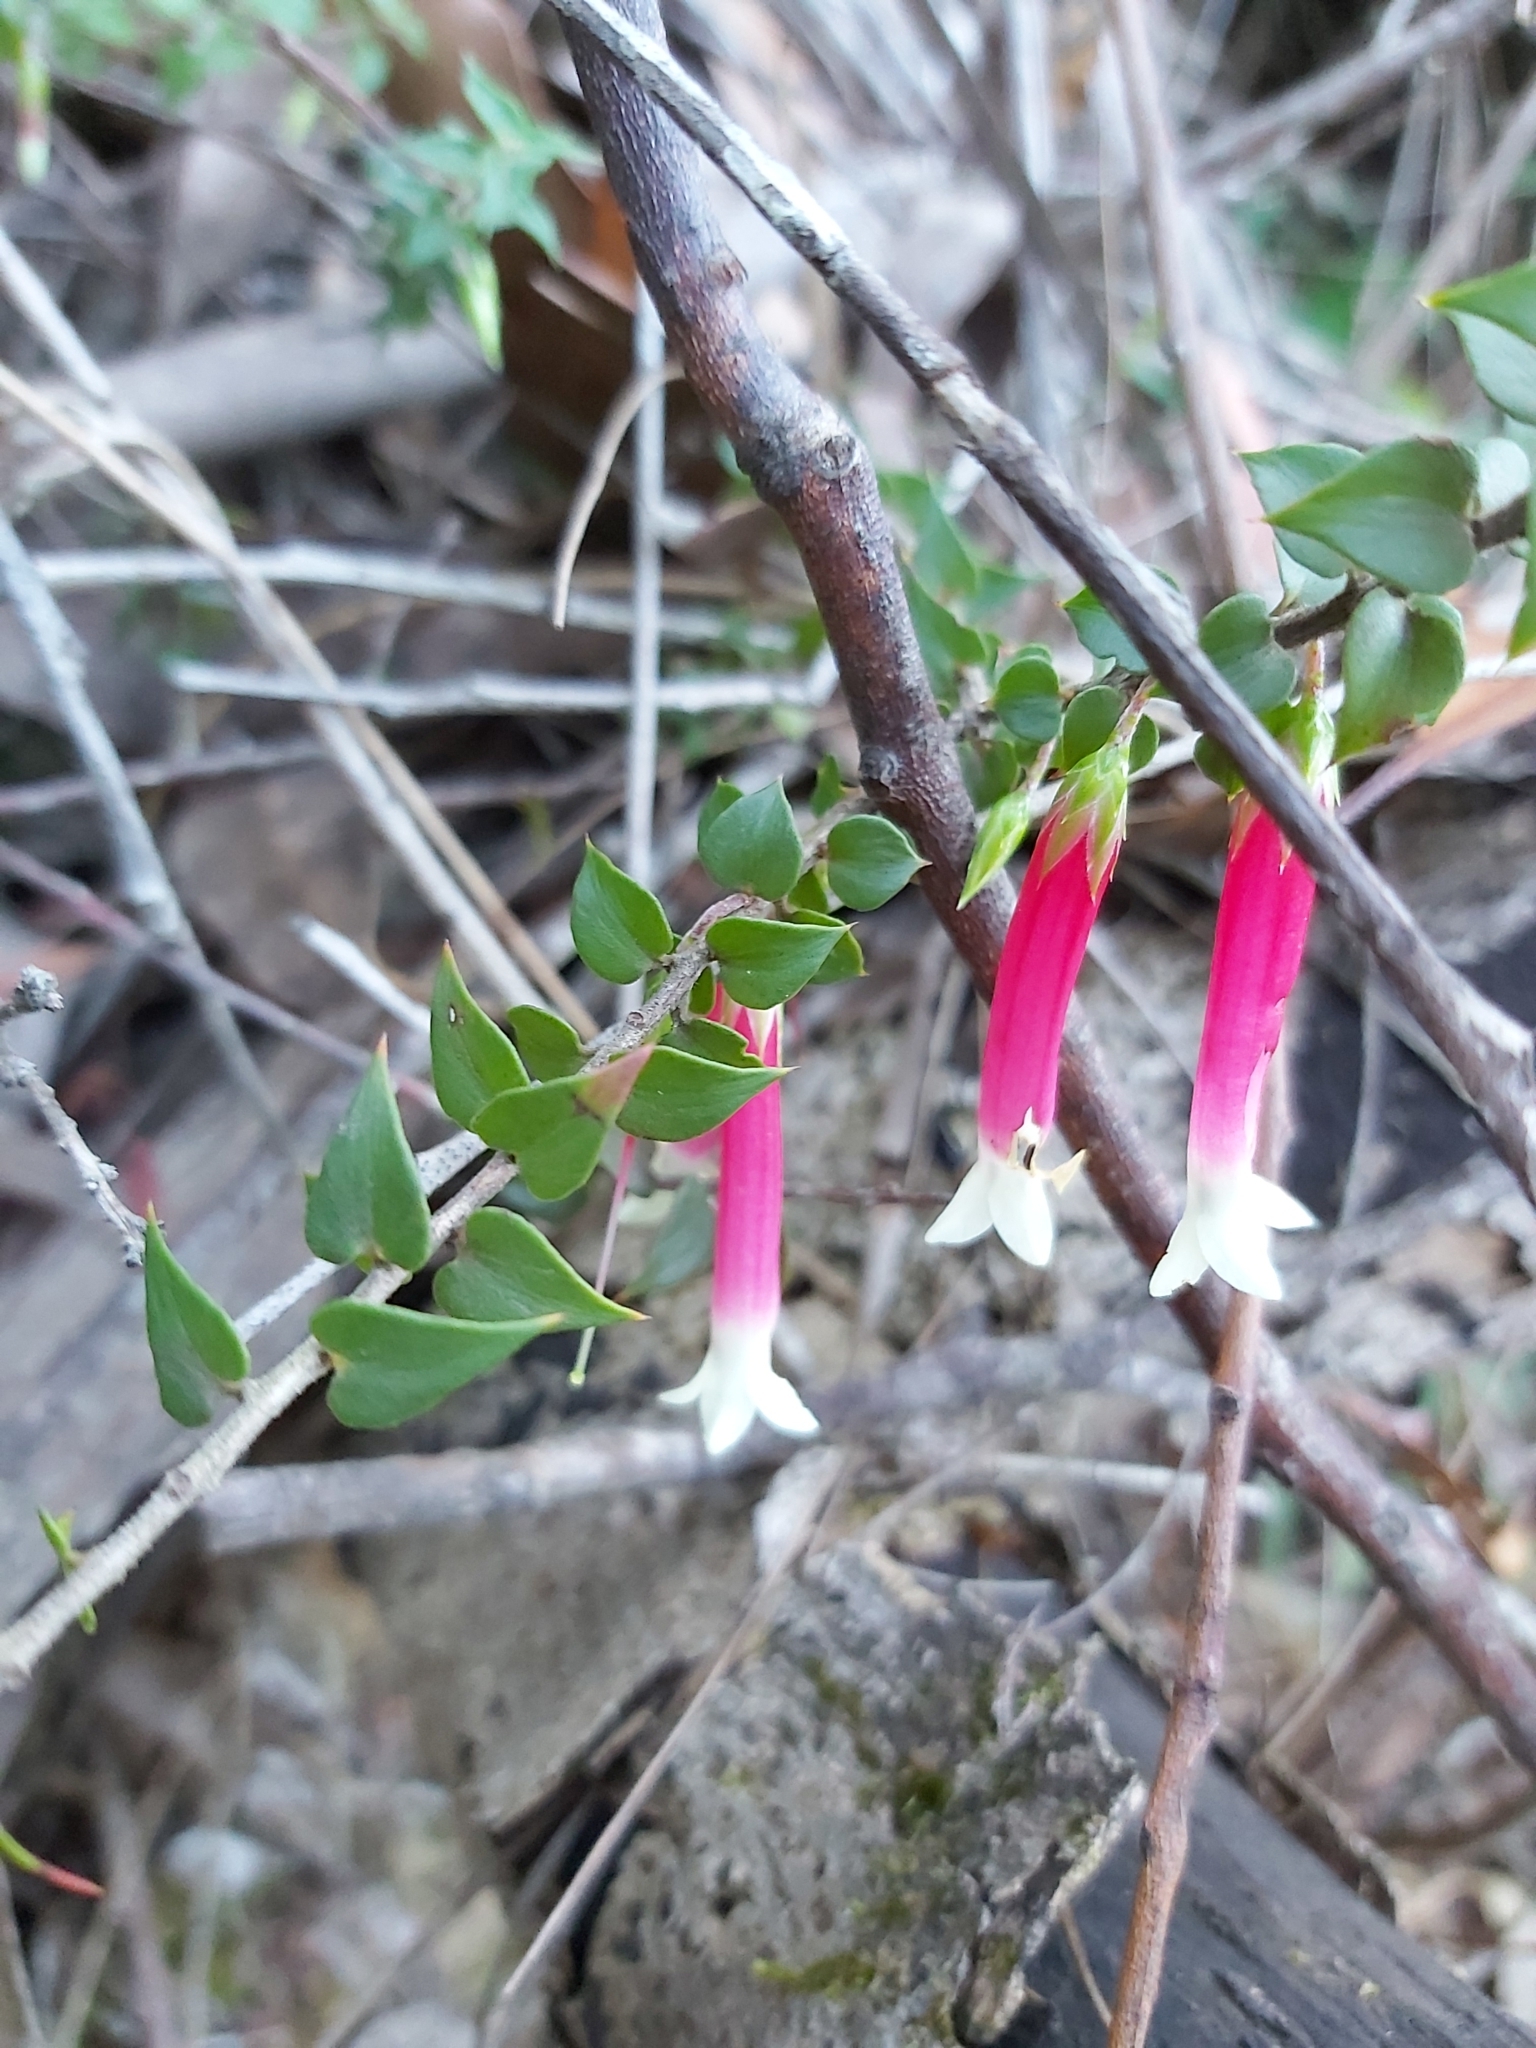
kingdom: Plantae
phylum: Tracheophyta
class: Magnoliopsida
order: Ericales
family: Ericaceae
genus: Epacris
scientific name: Epacris longiflora
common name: Fuchsia-heath
